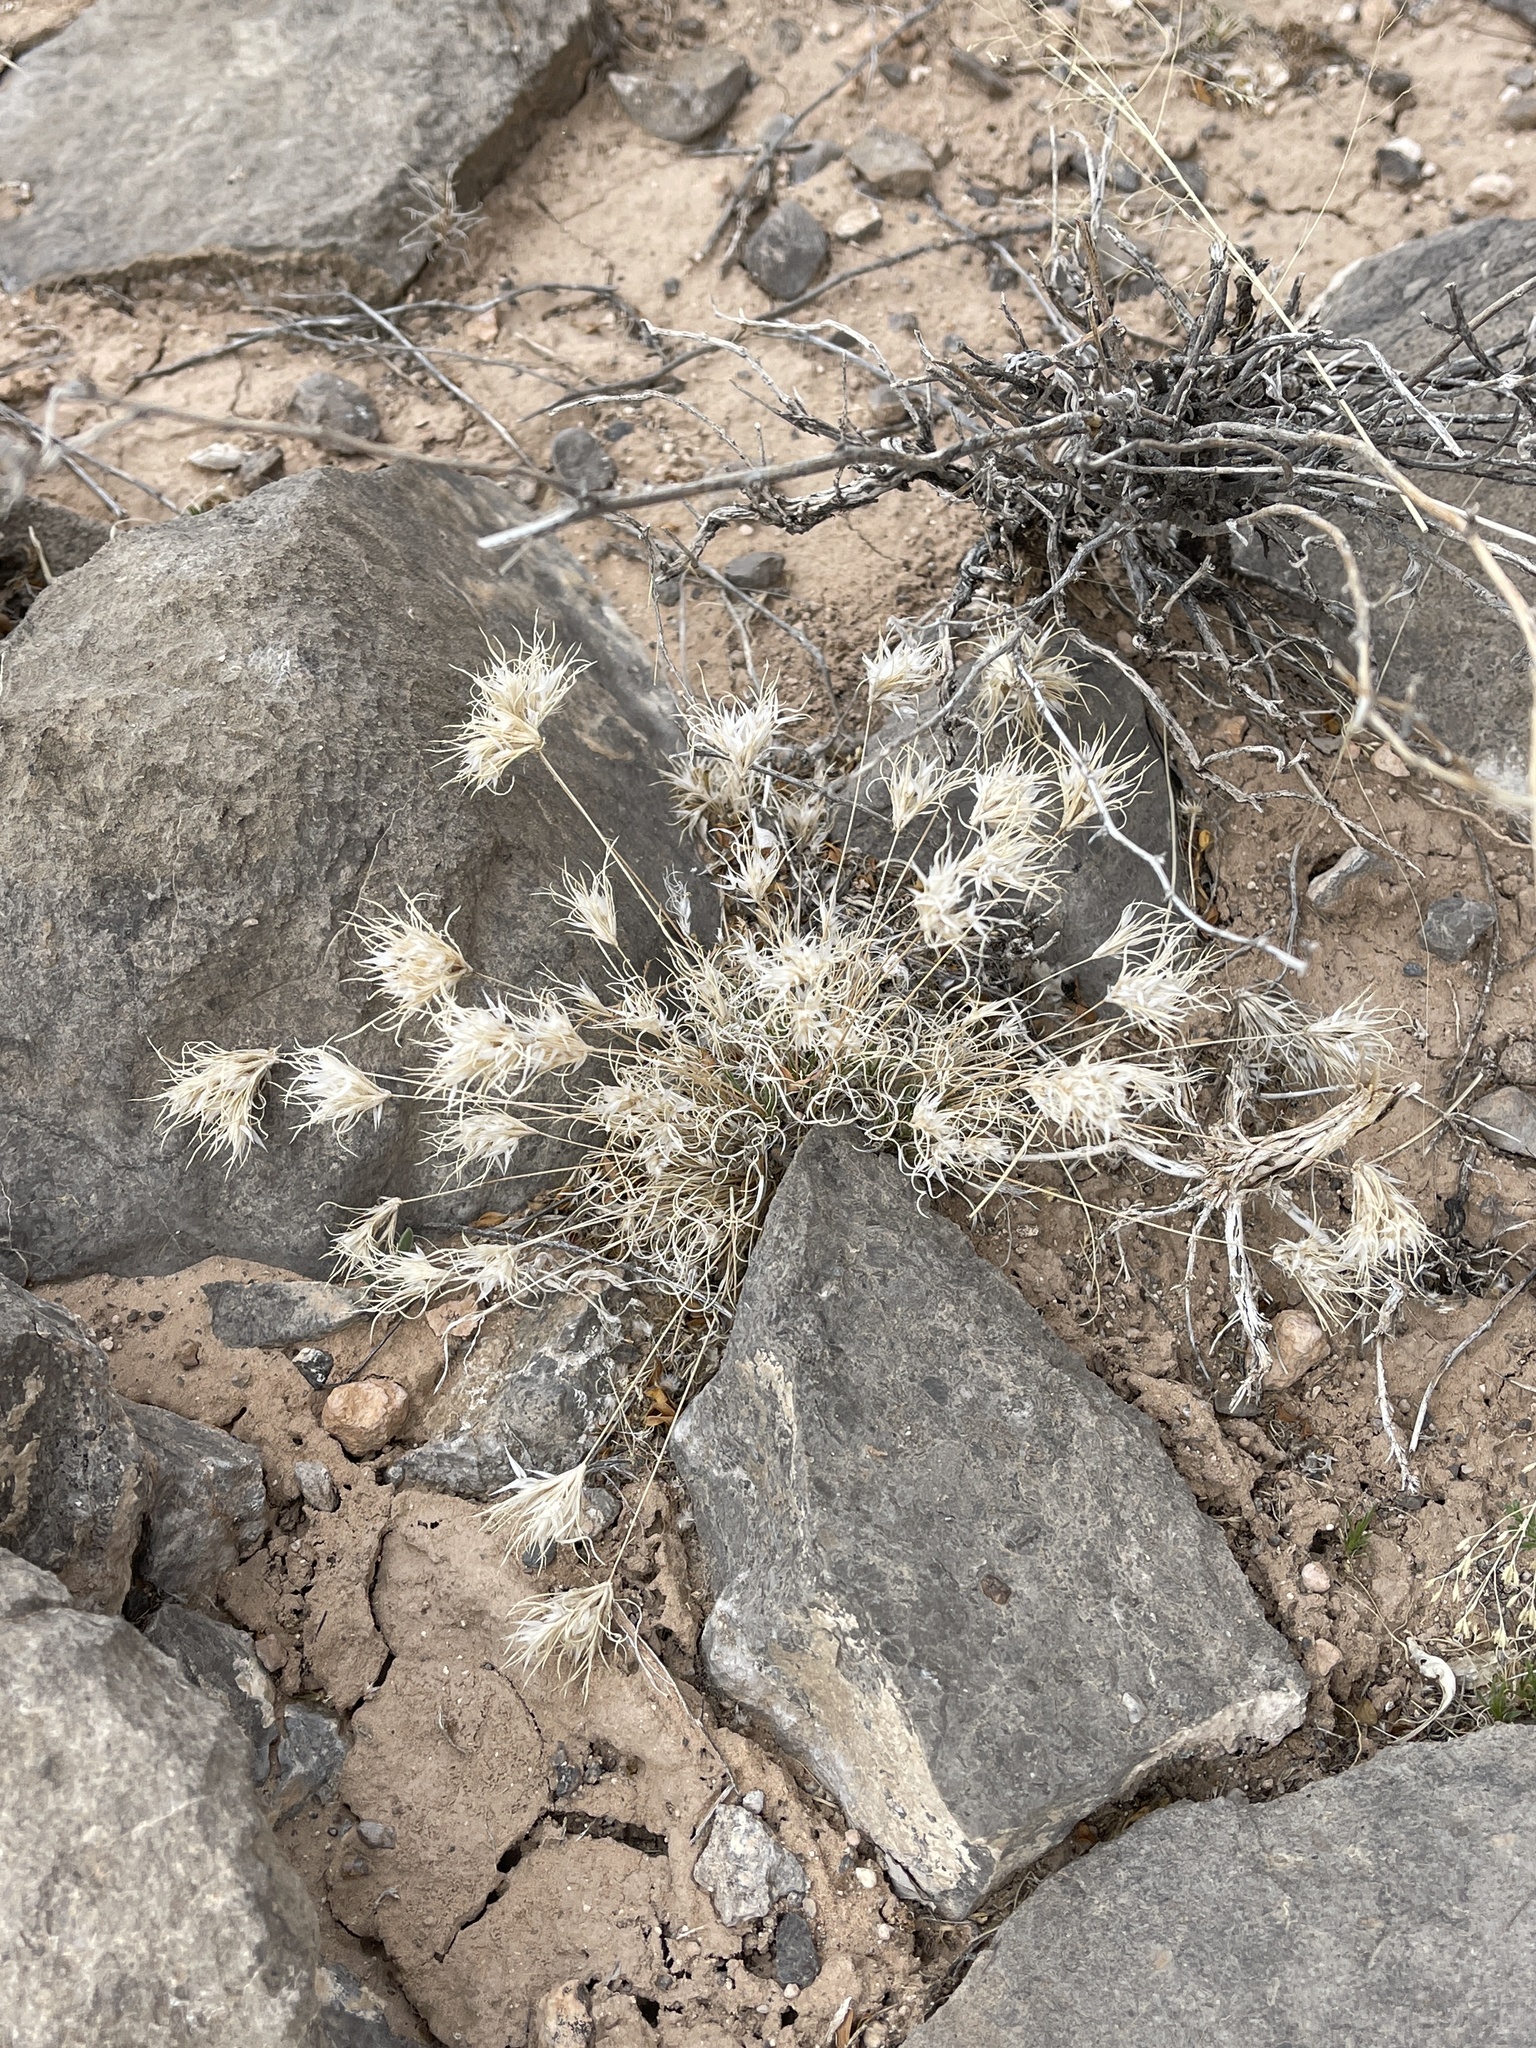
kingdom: Plantae
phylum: Tracheophyta
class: Liliopsida
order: Poales
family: Poaceae
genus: Dasyochloa
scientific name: Dasyochloa pulchella
